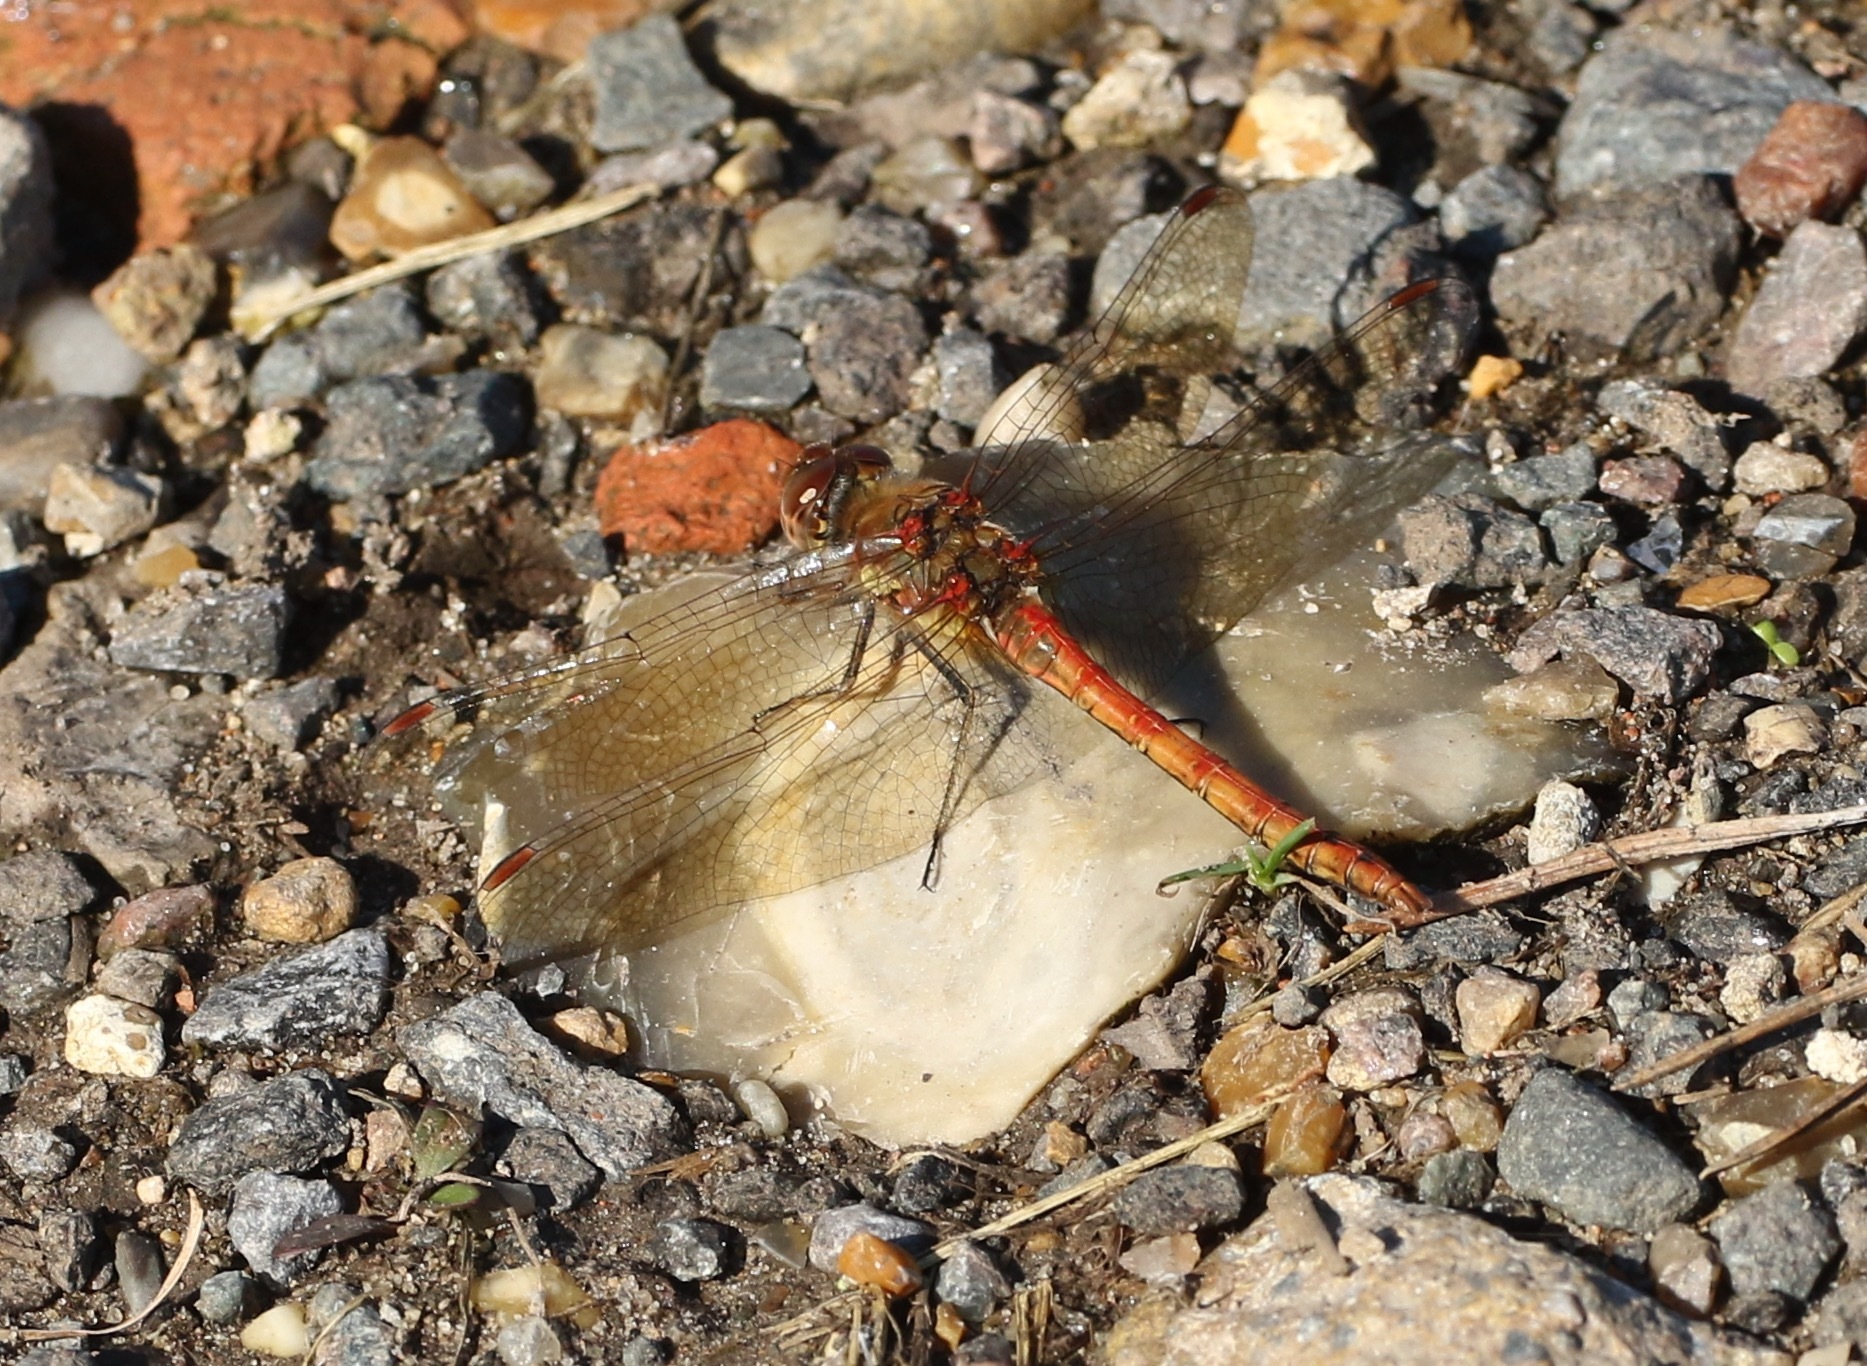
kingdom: Animalia
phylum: Arthropoda
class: Insecta
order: Odonata
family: Libellulidae
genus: Sympetrum
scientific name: Sympetrum striolatum
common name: Common darter
